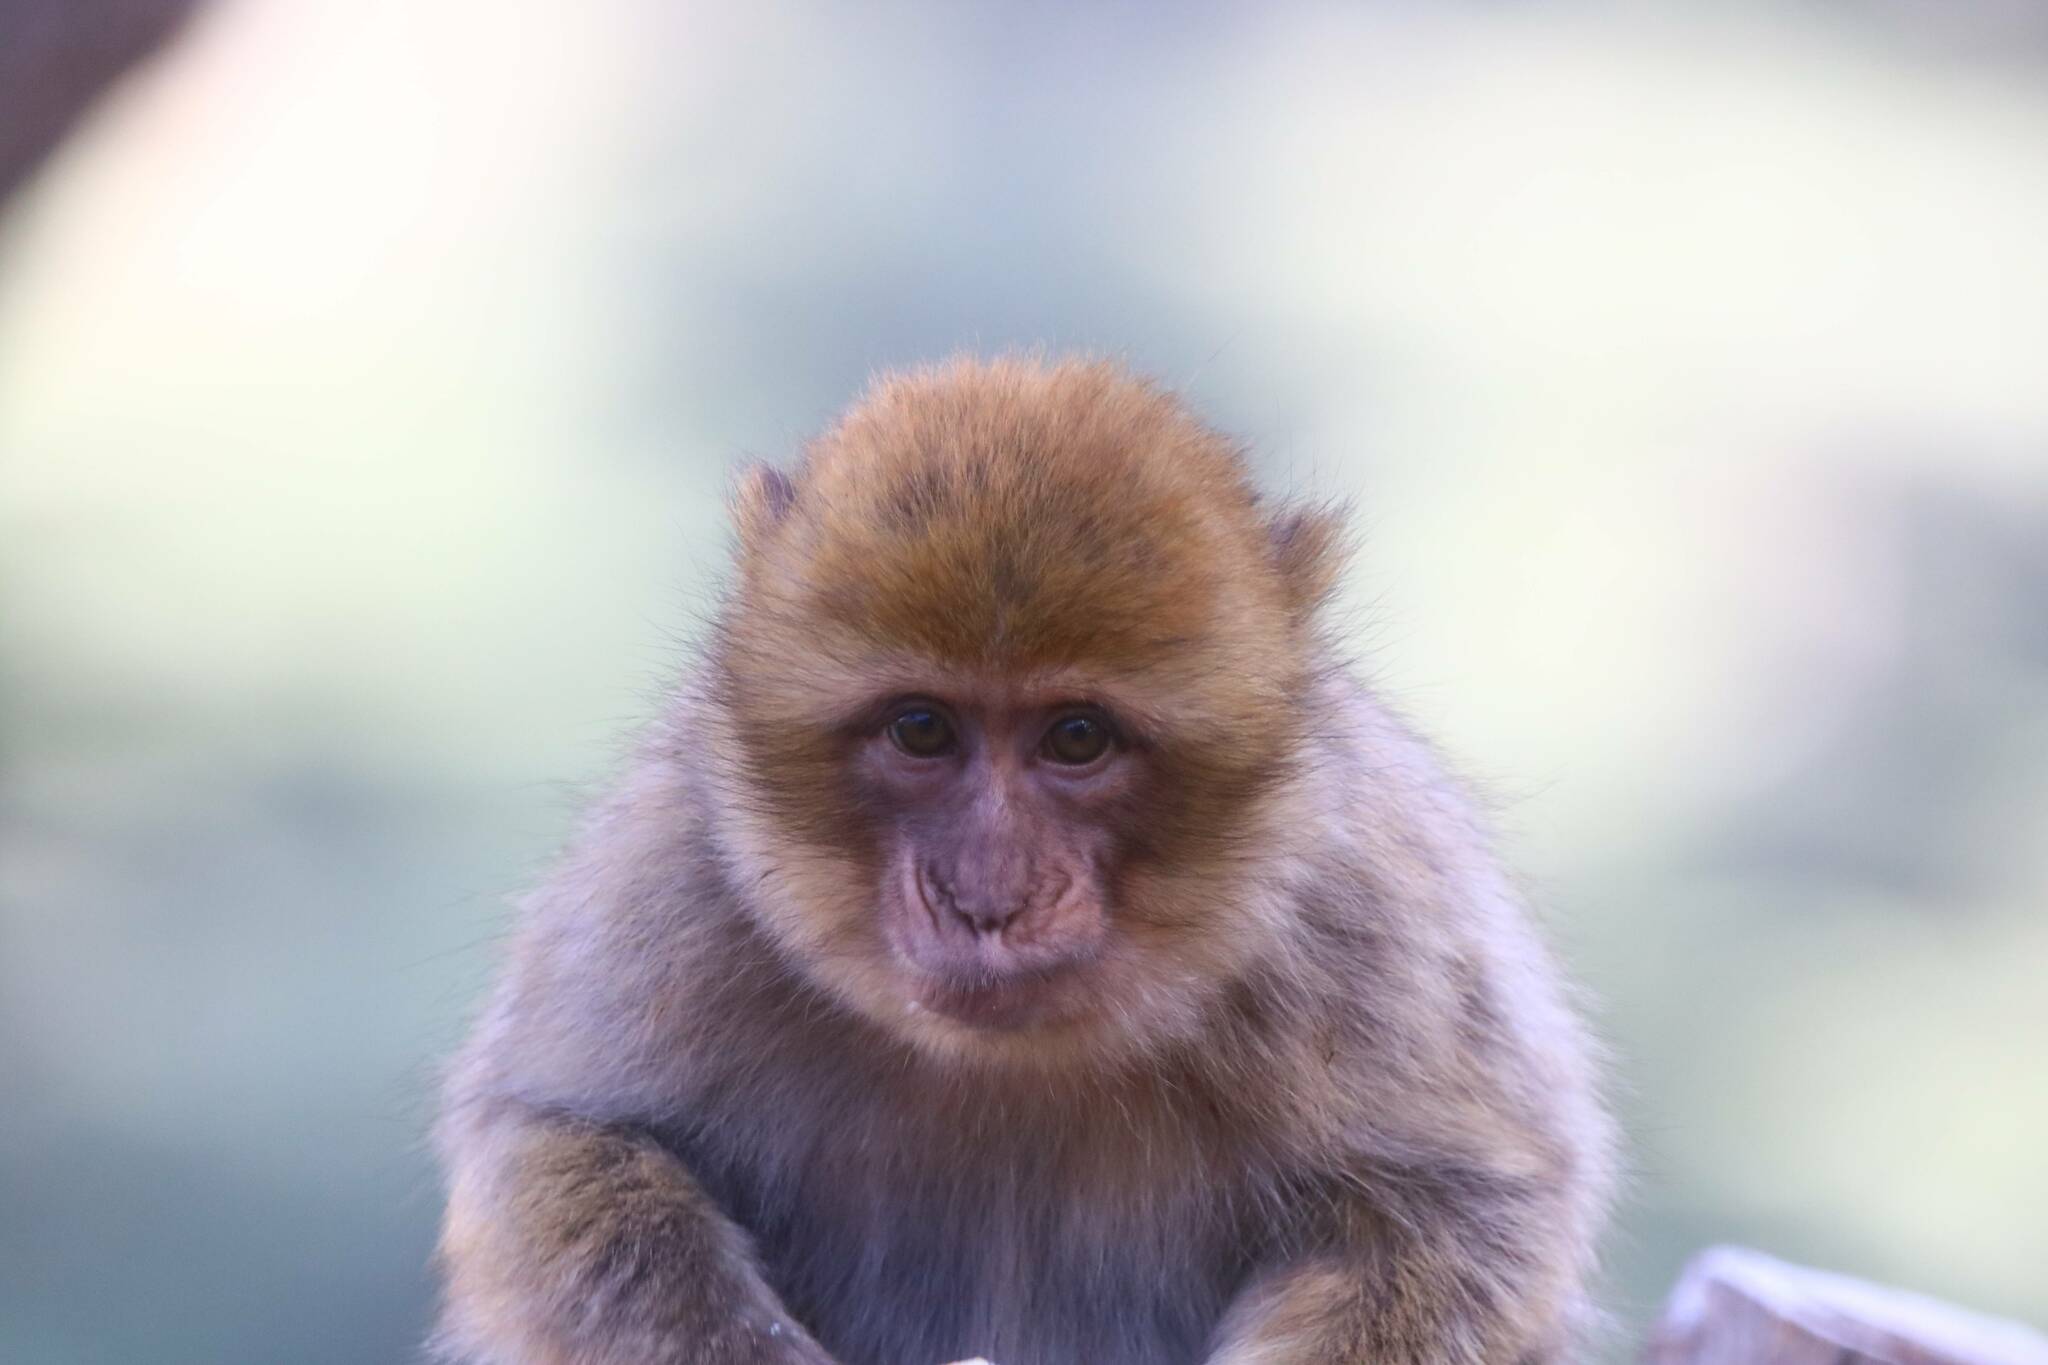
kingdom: Animalia
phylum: Chordata
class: Mammalia
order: Primates
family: Cercopithecidae
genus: Macaca
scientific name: Macaca sylvanus
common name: Barbary macaque
